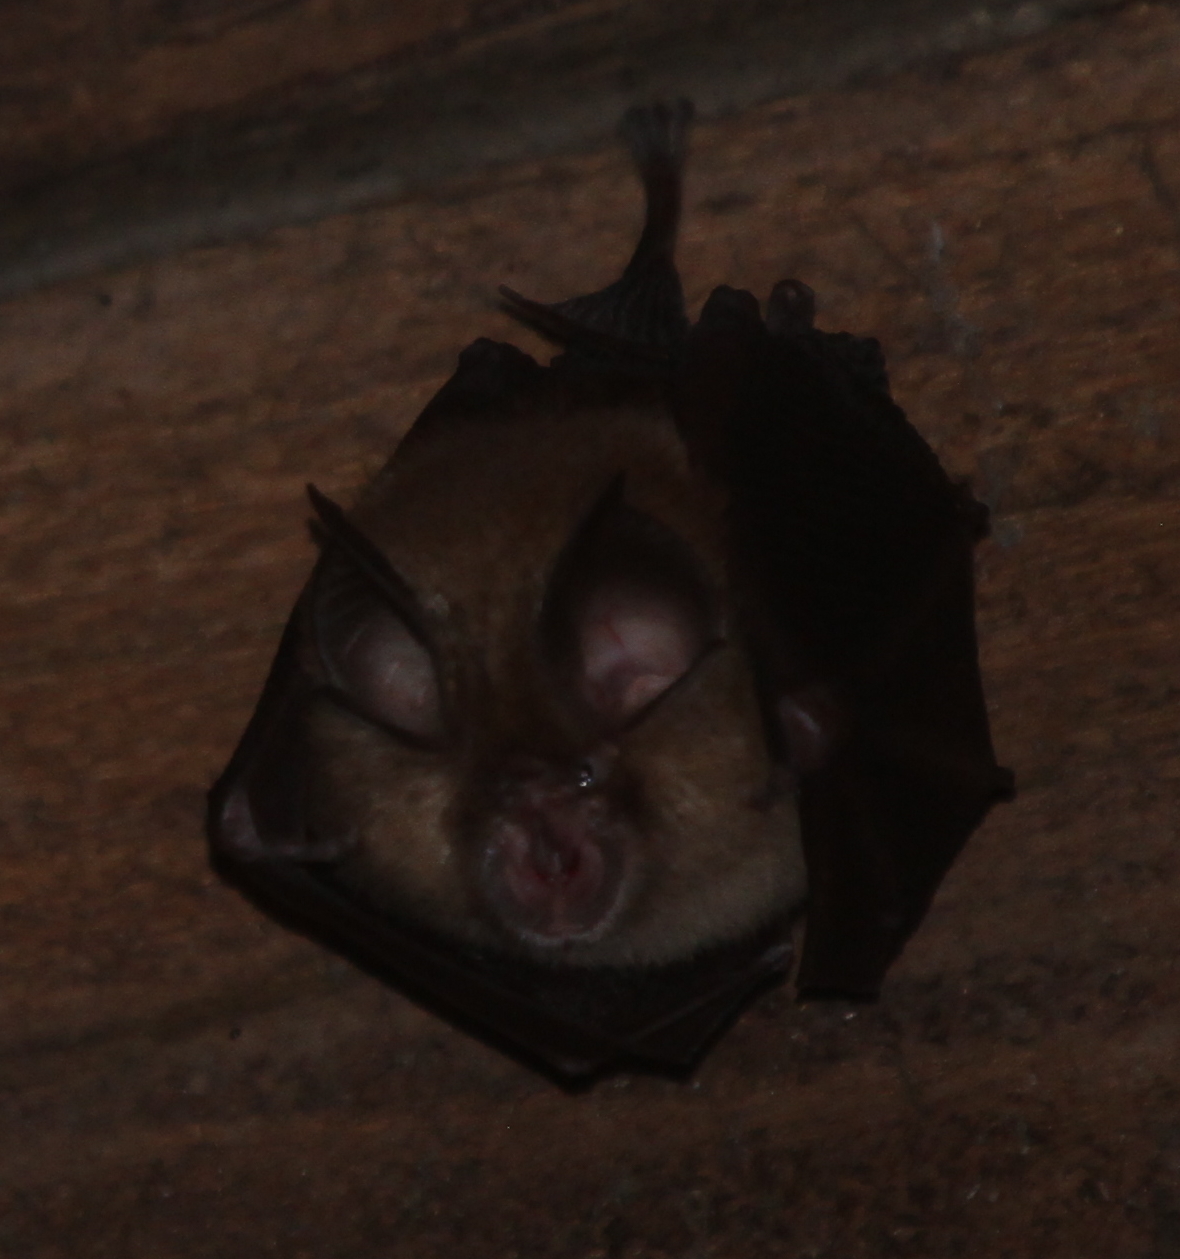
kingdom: Animalia
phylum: Chordata
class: Mammalia
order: Chiroptera
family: Rhinolophidae
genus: Rhinolophus
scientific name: Rhinolophus hipposideros
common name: Lesser horseshoe bat
